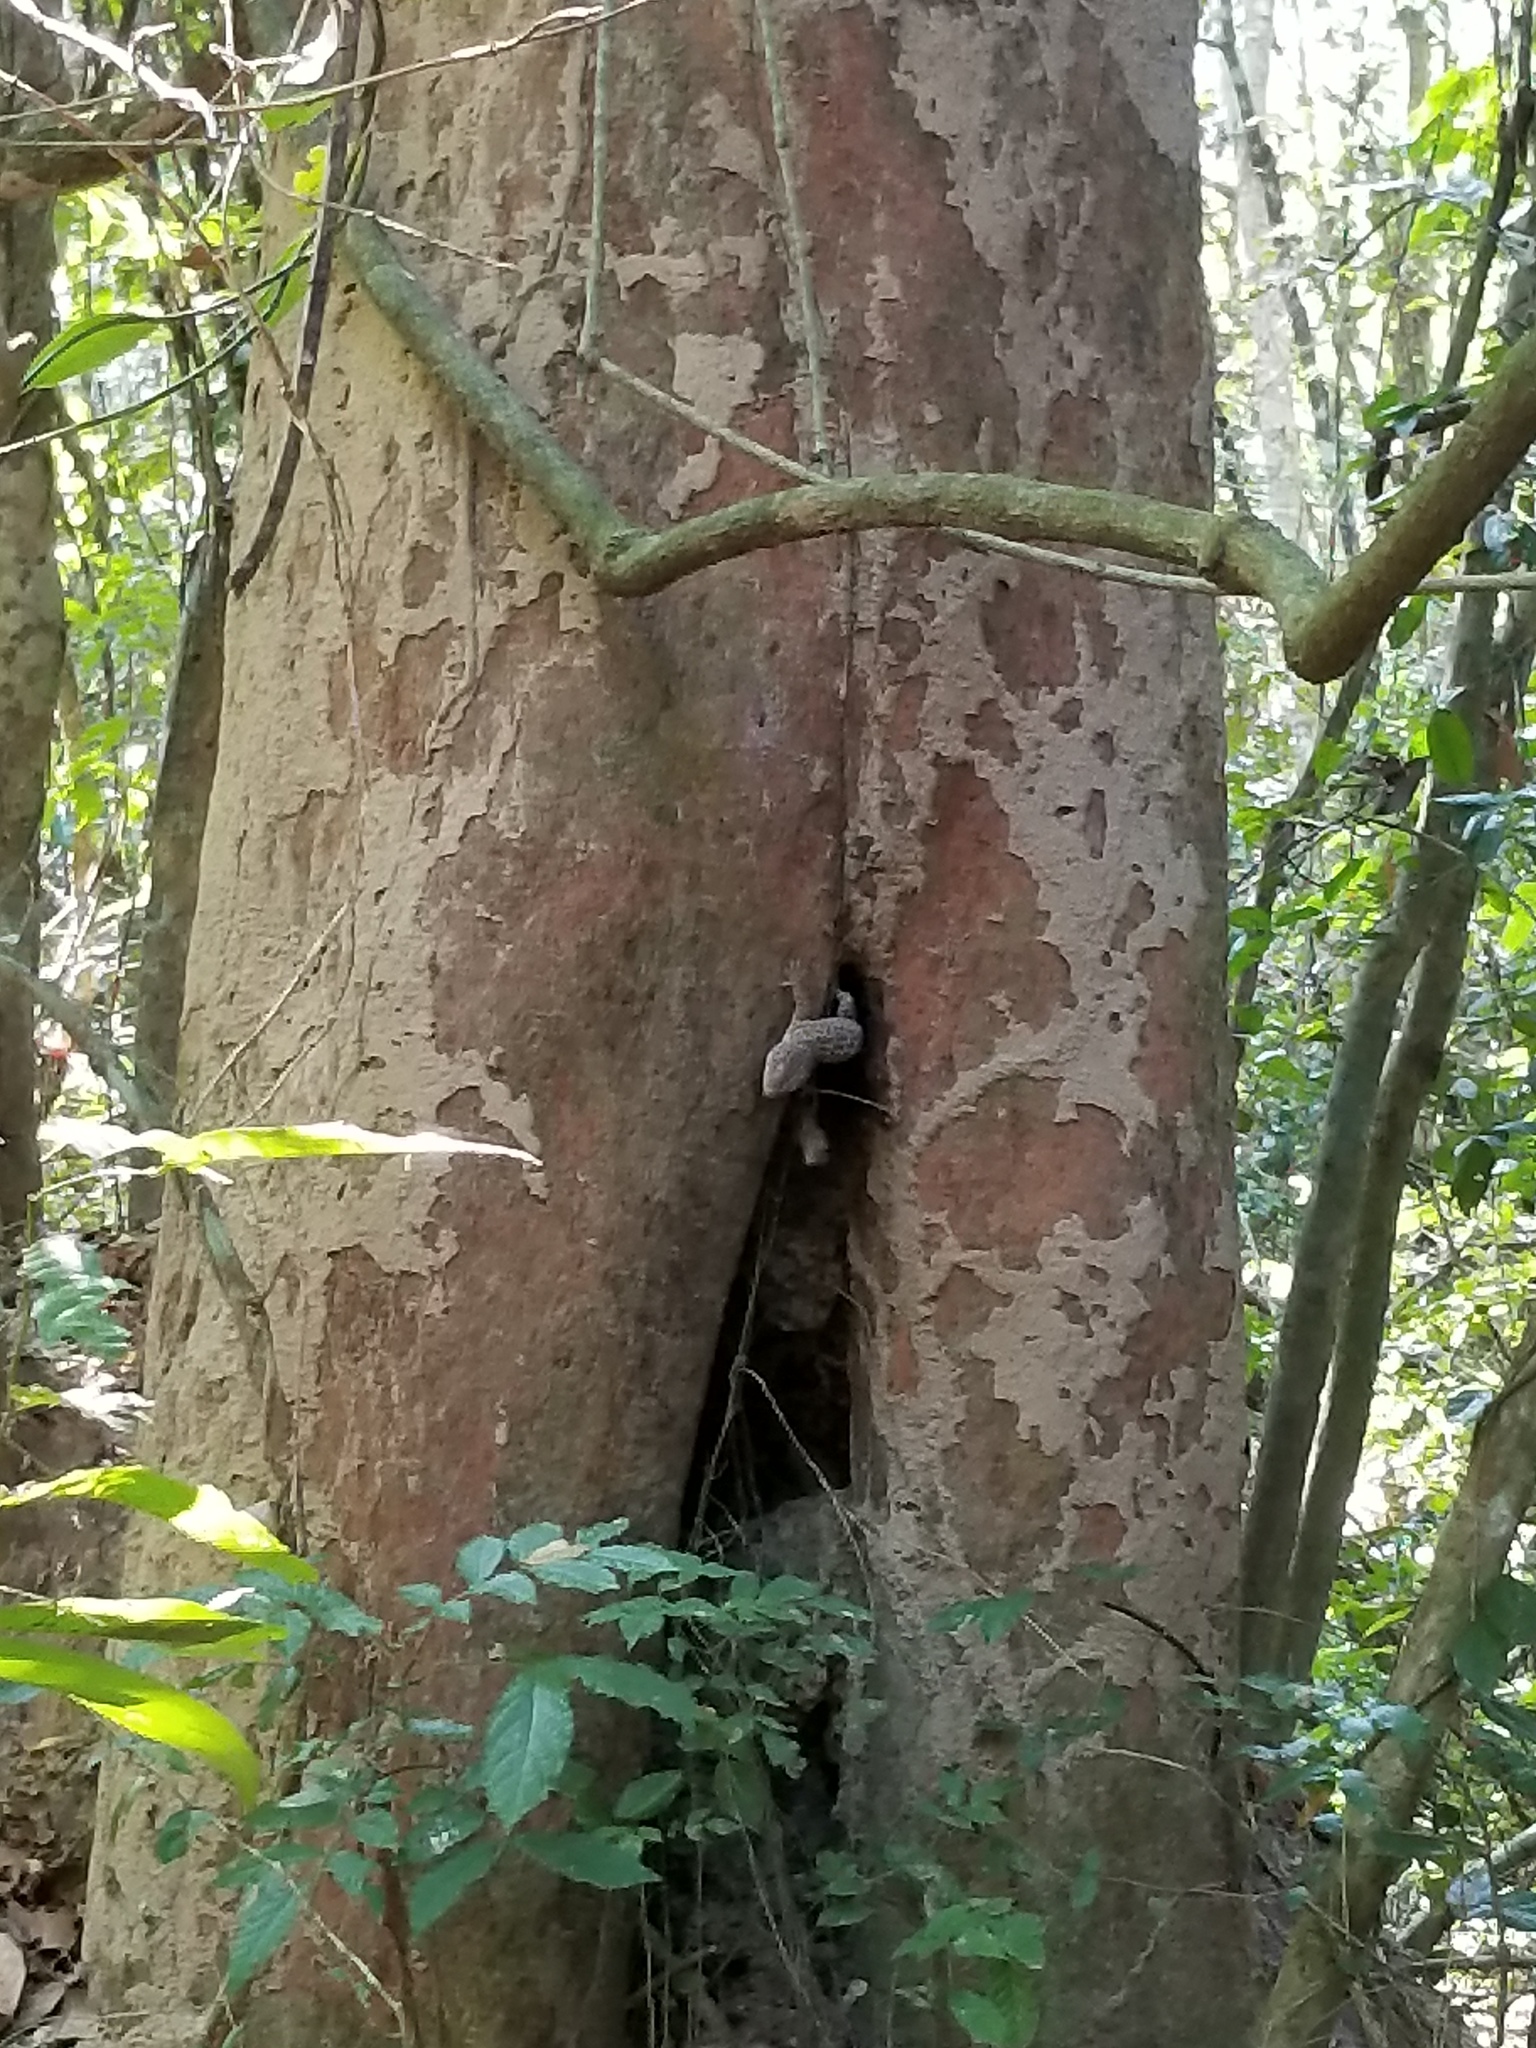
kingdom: Animalia
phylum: Chordata
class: Squamata
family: Gekkonidae
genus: Gekko
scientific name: Gekko gecko
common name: Tokay gecko
